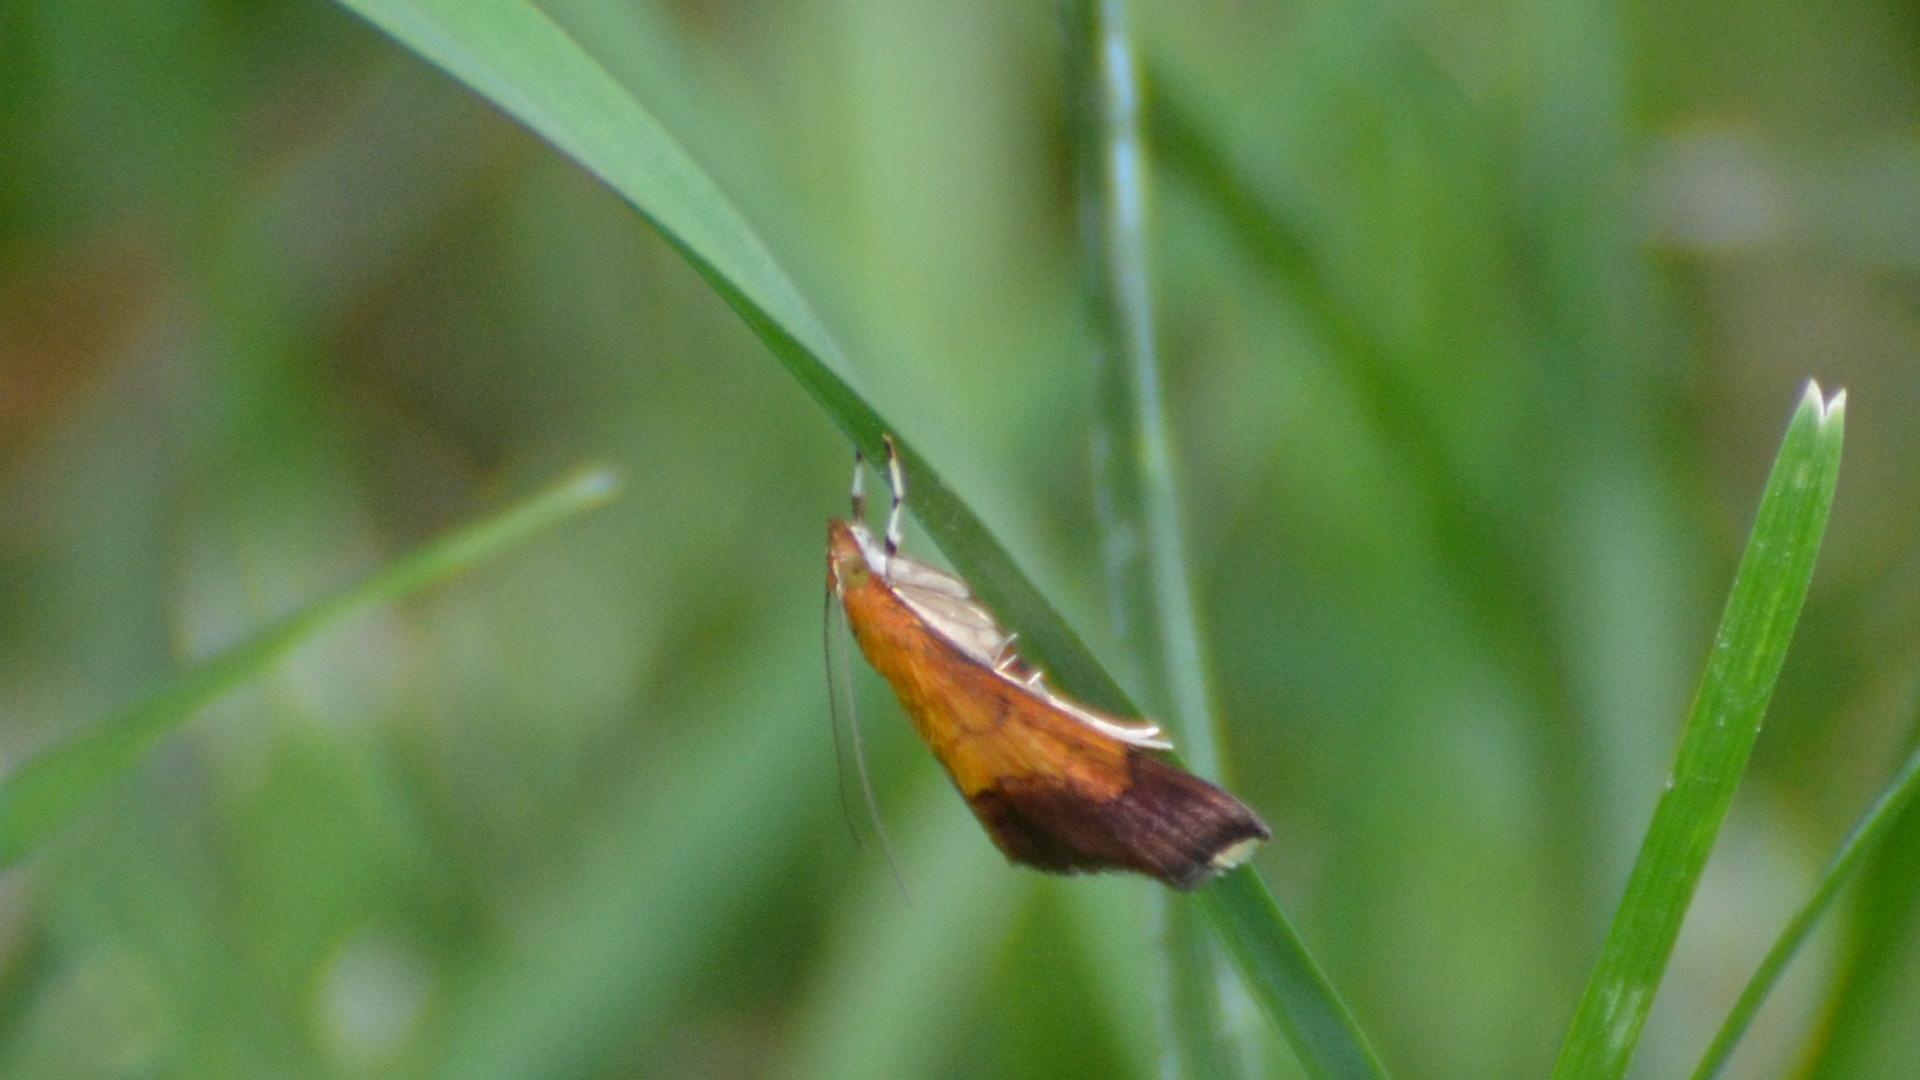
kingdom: Animalia
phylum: Arthropoda
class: Insecta
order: Lepidoptera
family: Crambidae
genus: Pyrausta
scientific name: Pyrausta bicoloralis
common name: Bicolored pyrausta moth
